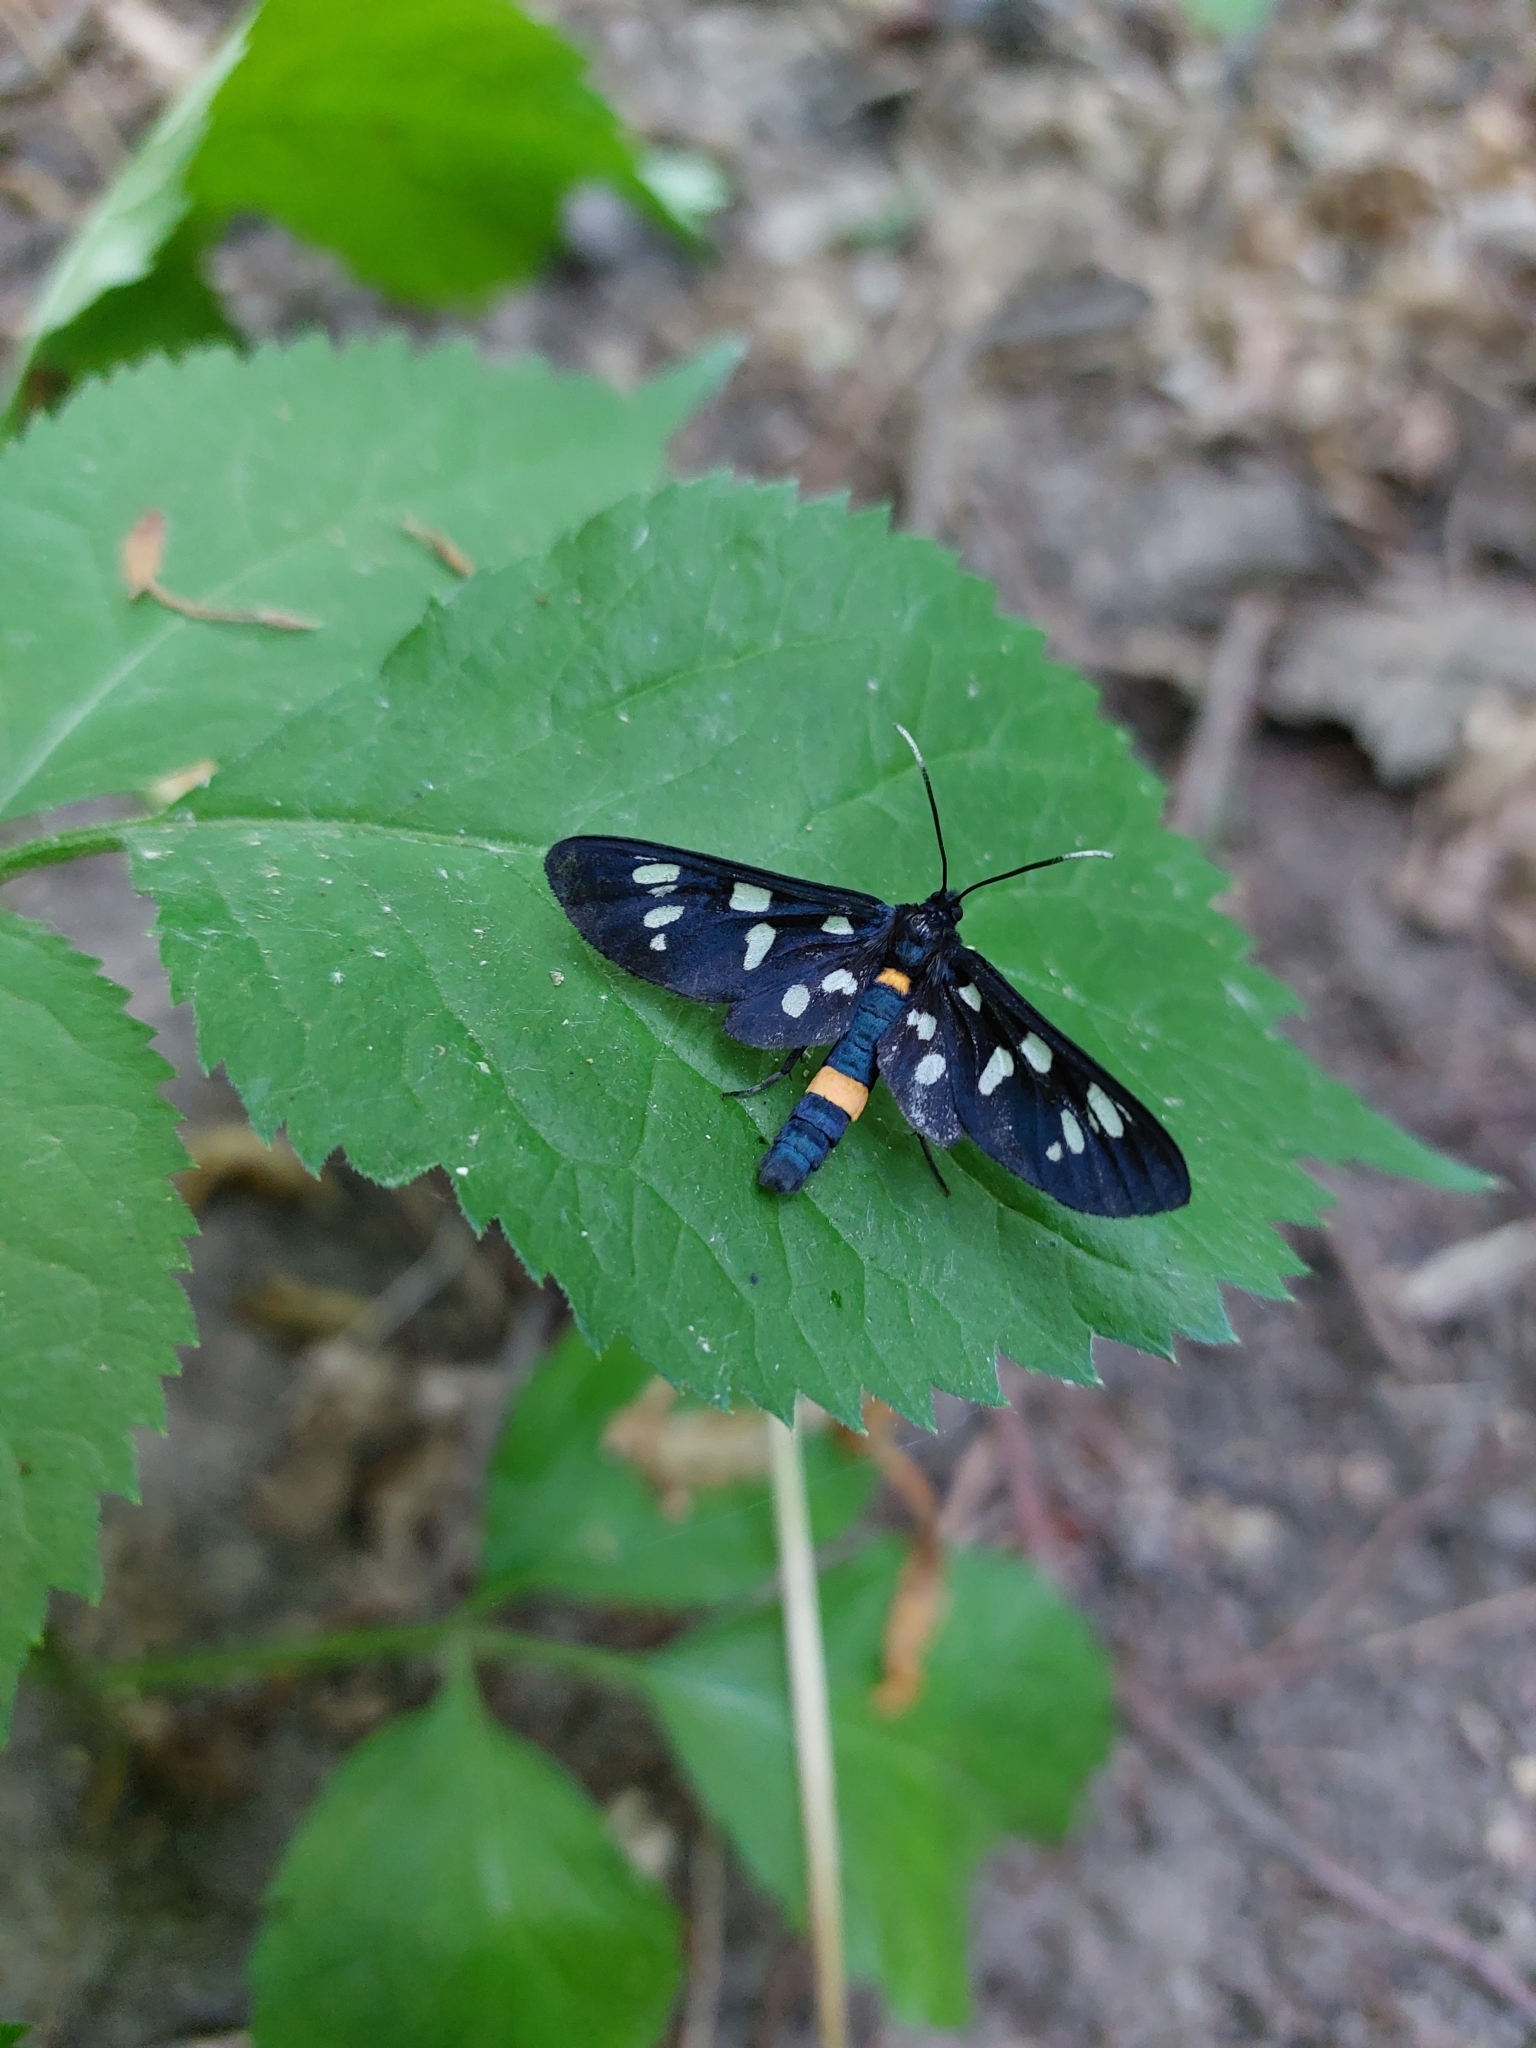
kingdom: Animalia
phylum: Arthropoda
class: Insecta
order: Lepidoptera
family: Erebidae
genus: Amata
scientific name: Amata phegea
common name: Nine-spotted
